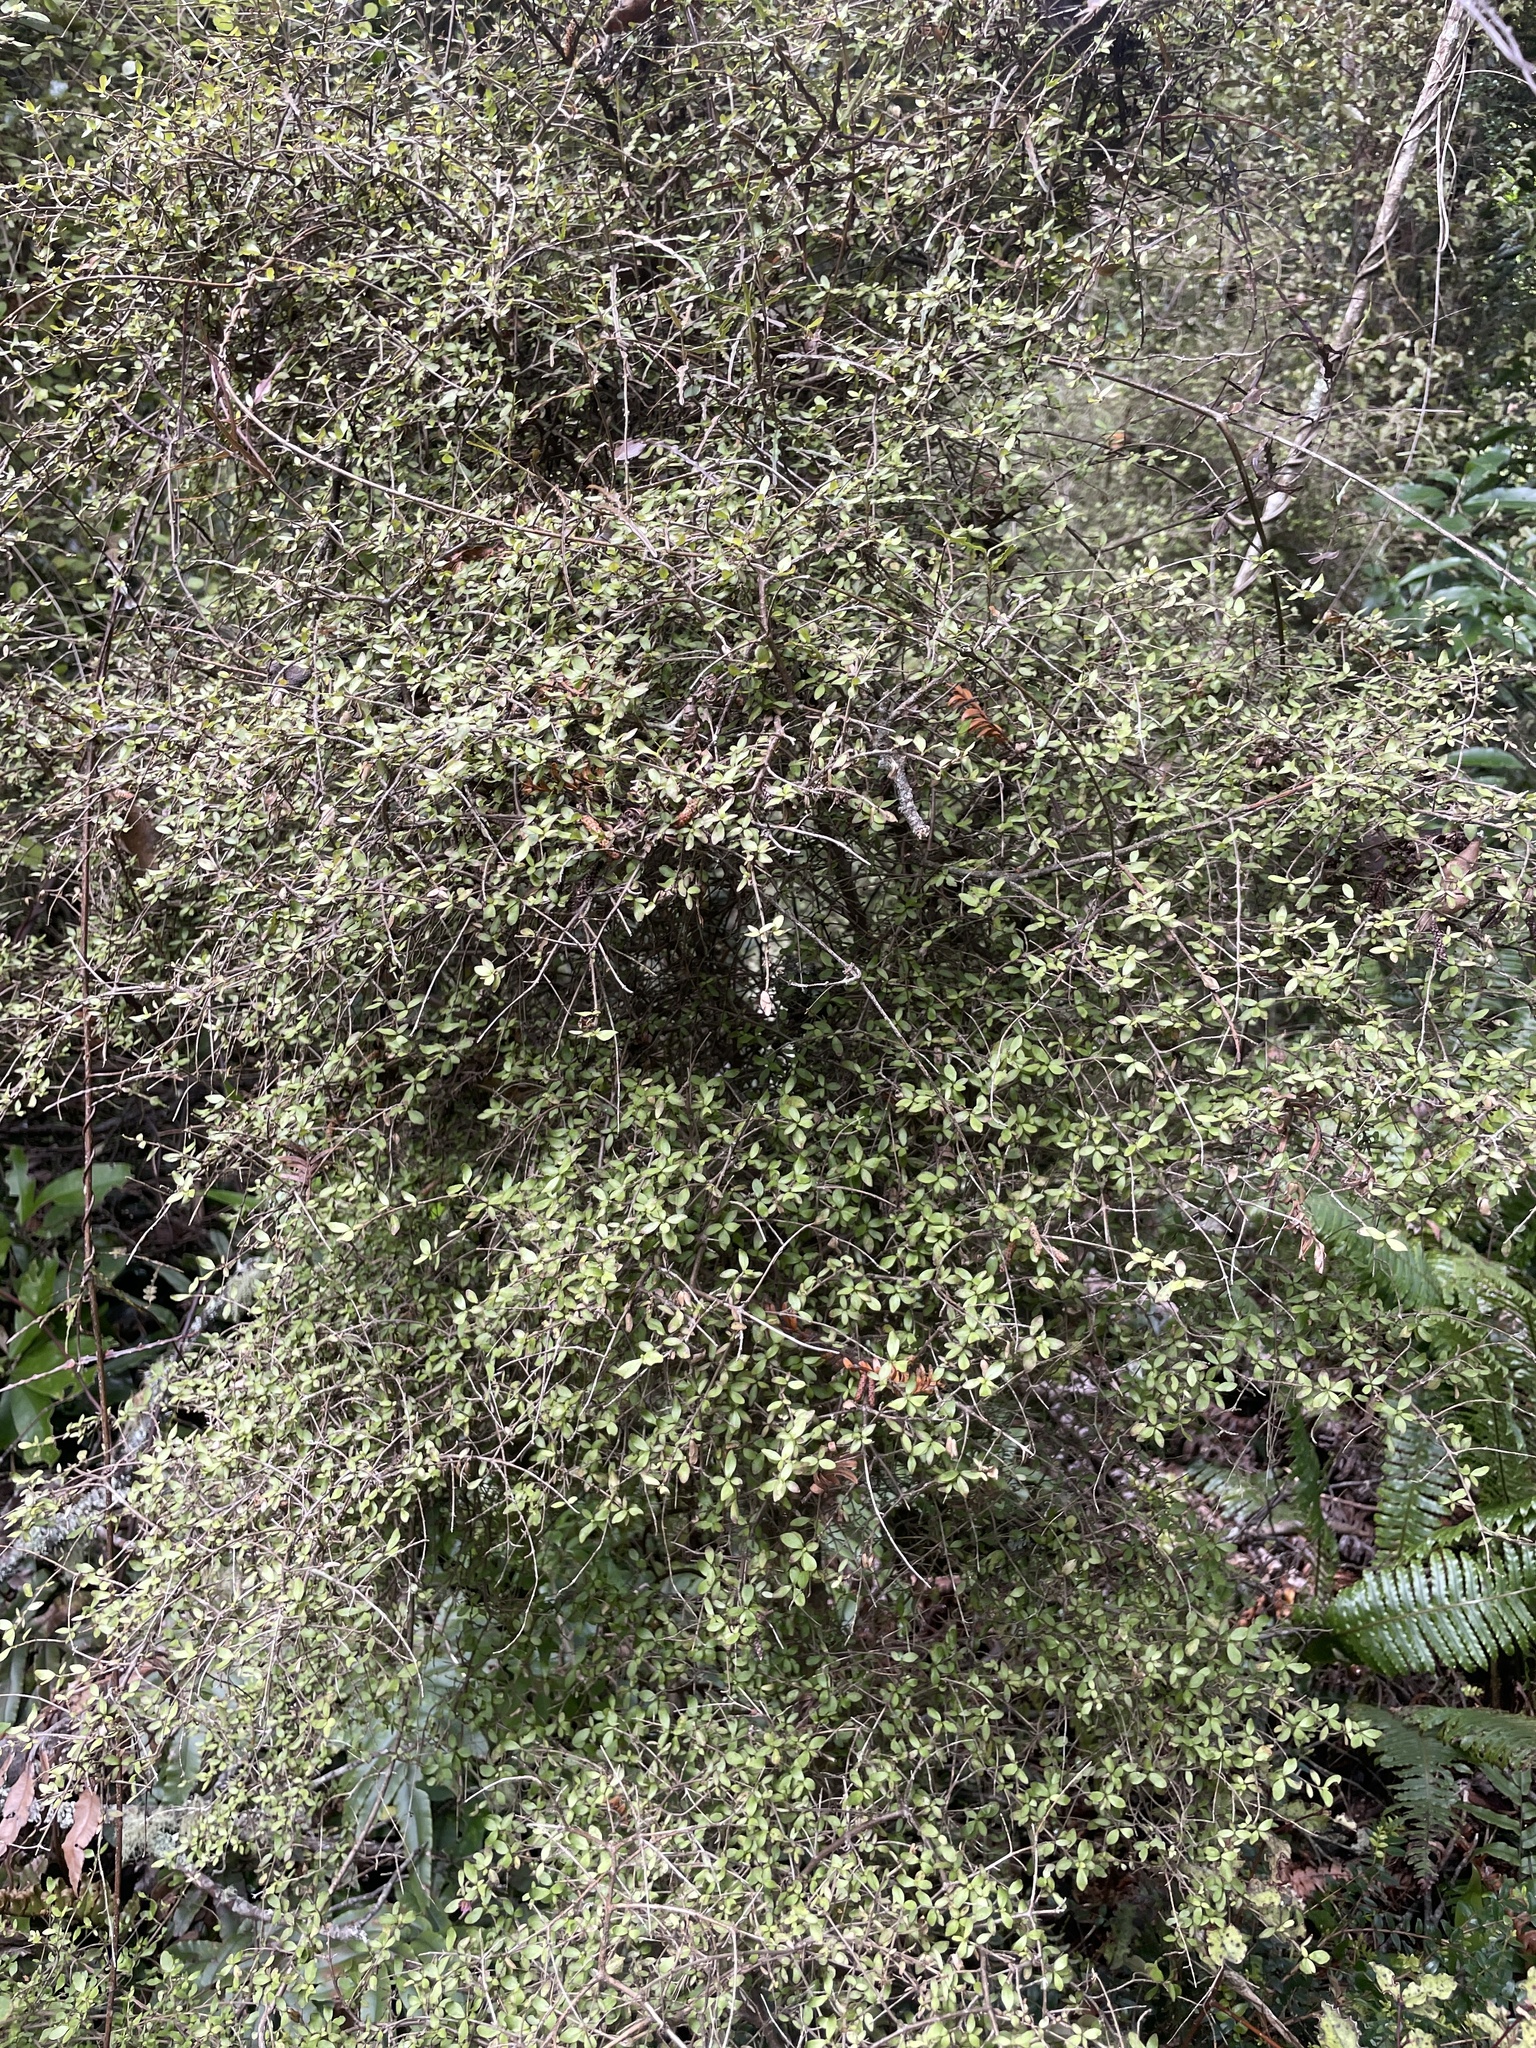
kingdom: Plantae
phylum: Tracheophyta
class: Magnoliopsida
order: Gentianales
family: Rubiaceae
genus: Coprosma
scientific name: Coprosma rhamnoides
